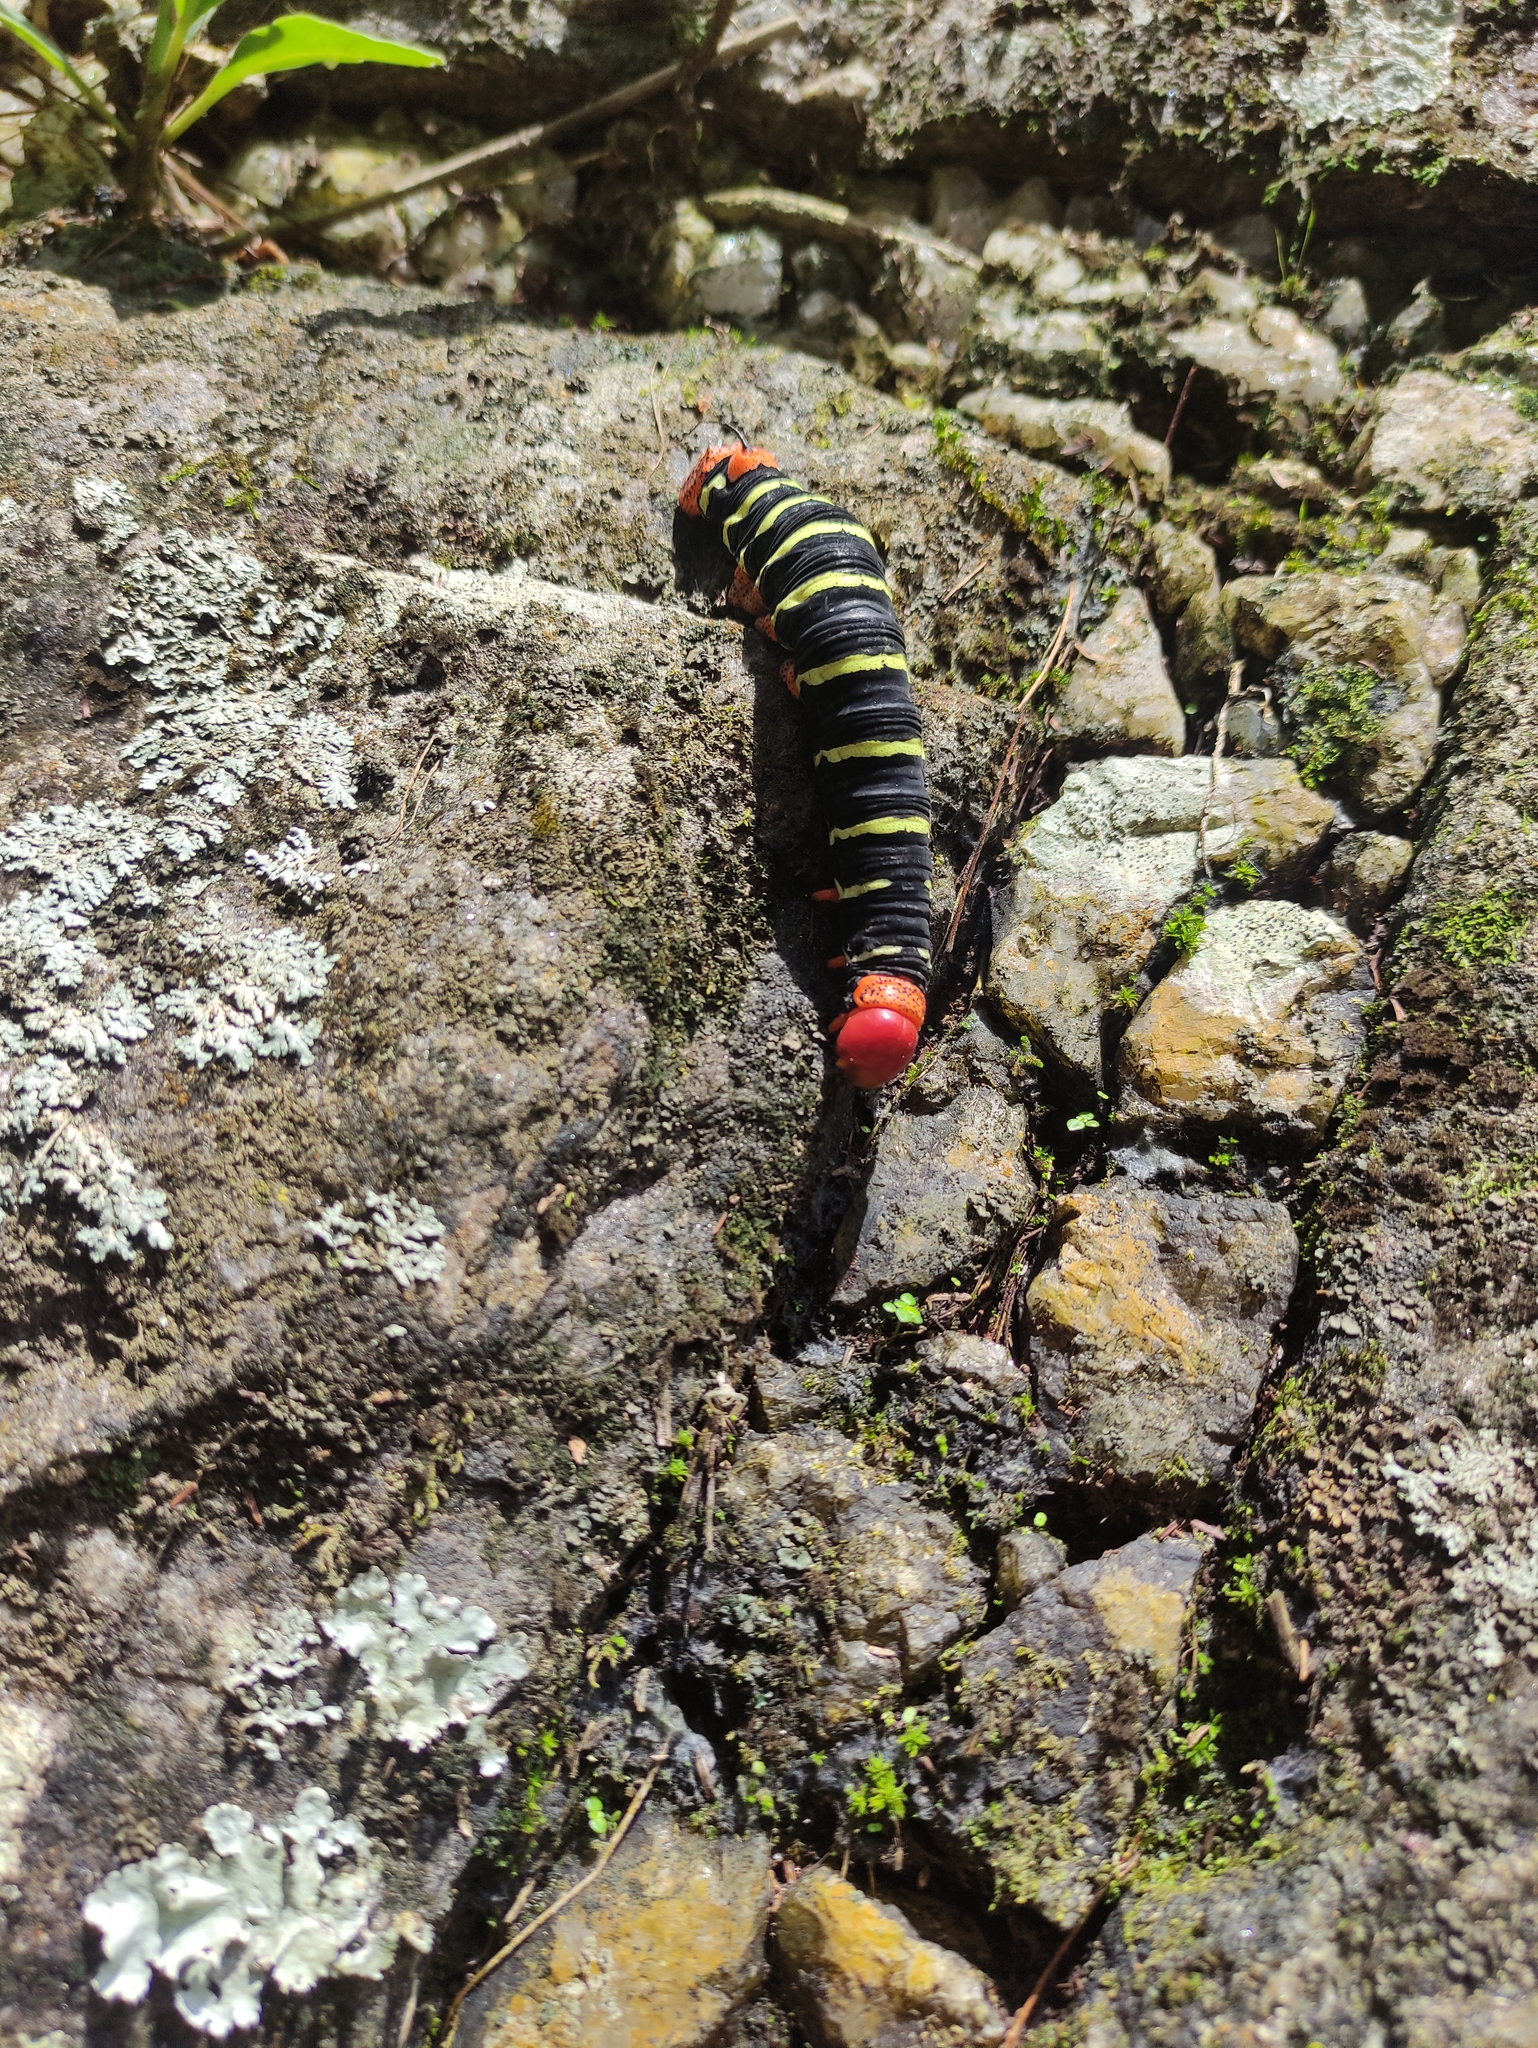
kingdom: Animalia
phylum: Arthropoda
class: Insecta
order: Lepidoptera
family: Sphingidae
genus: Pseudosphinx
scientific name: Pseudosphinx tetrio
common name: Tetrio sphinx
